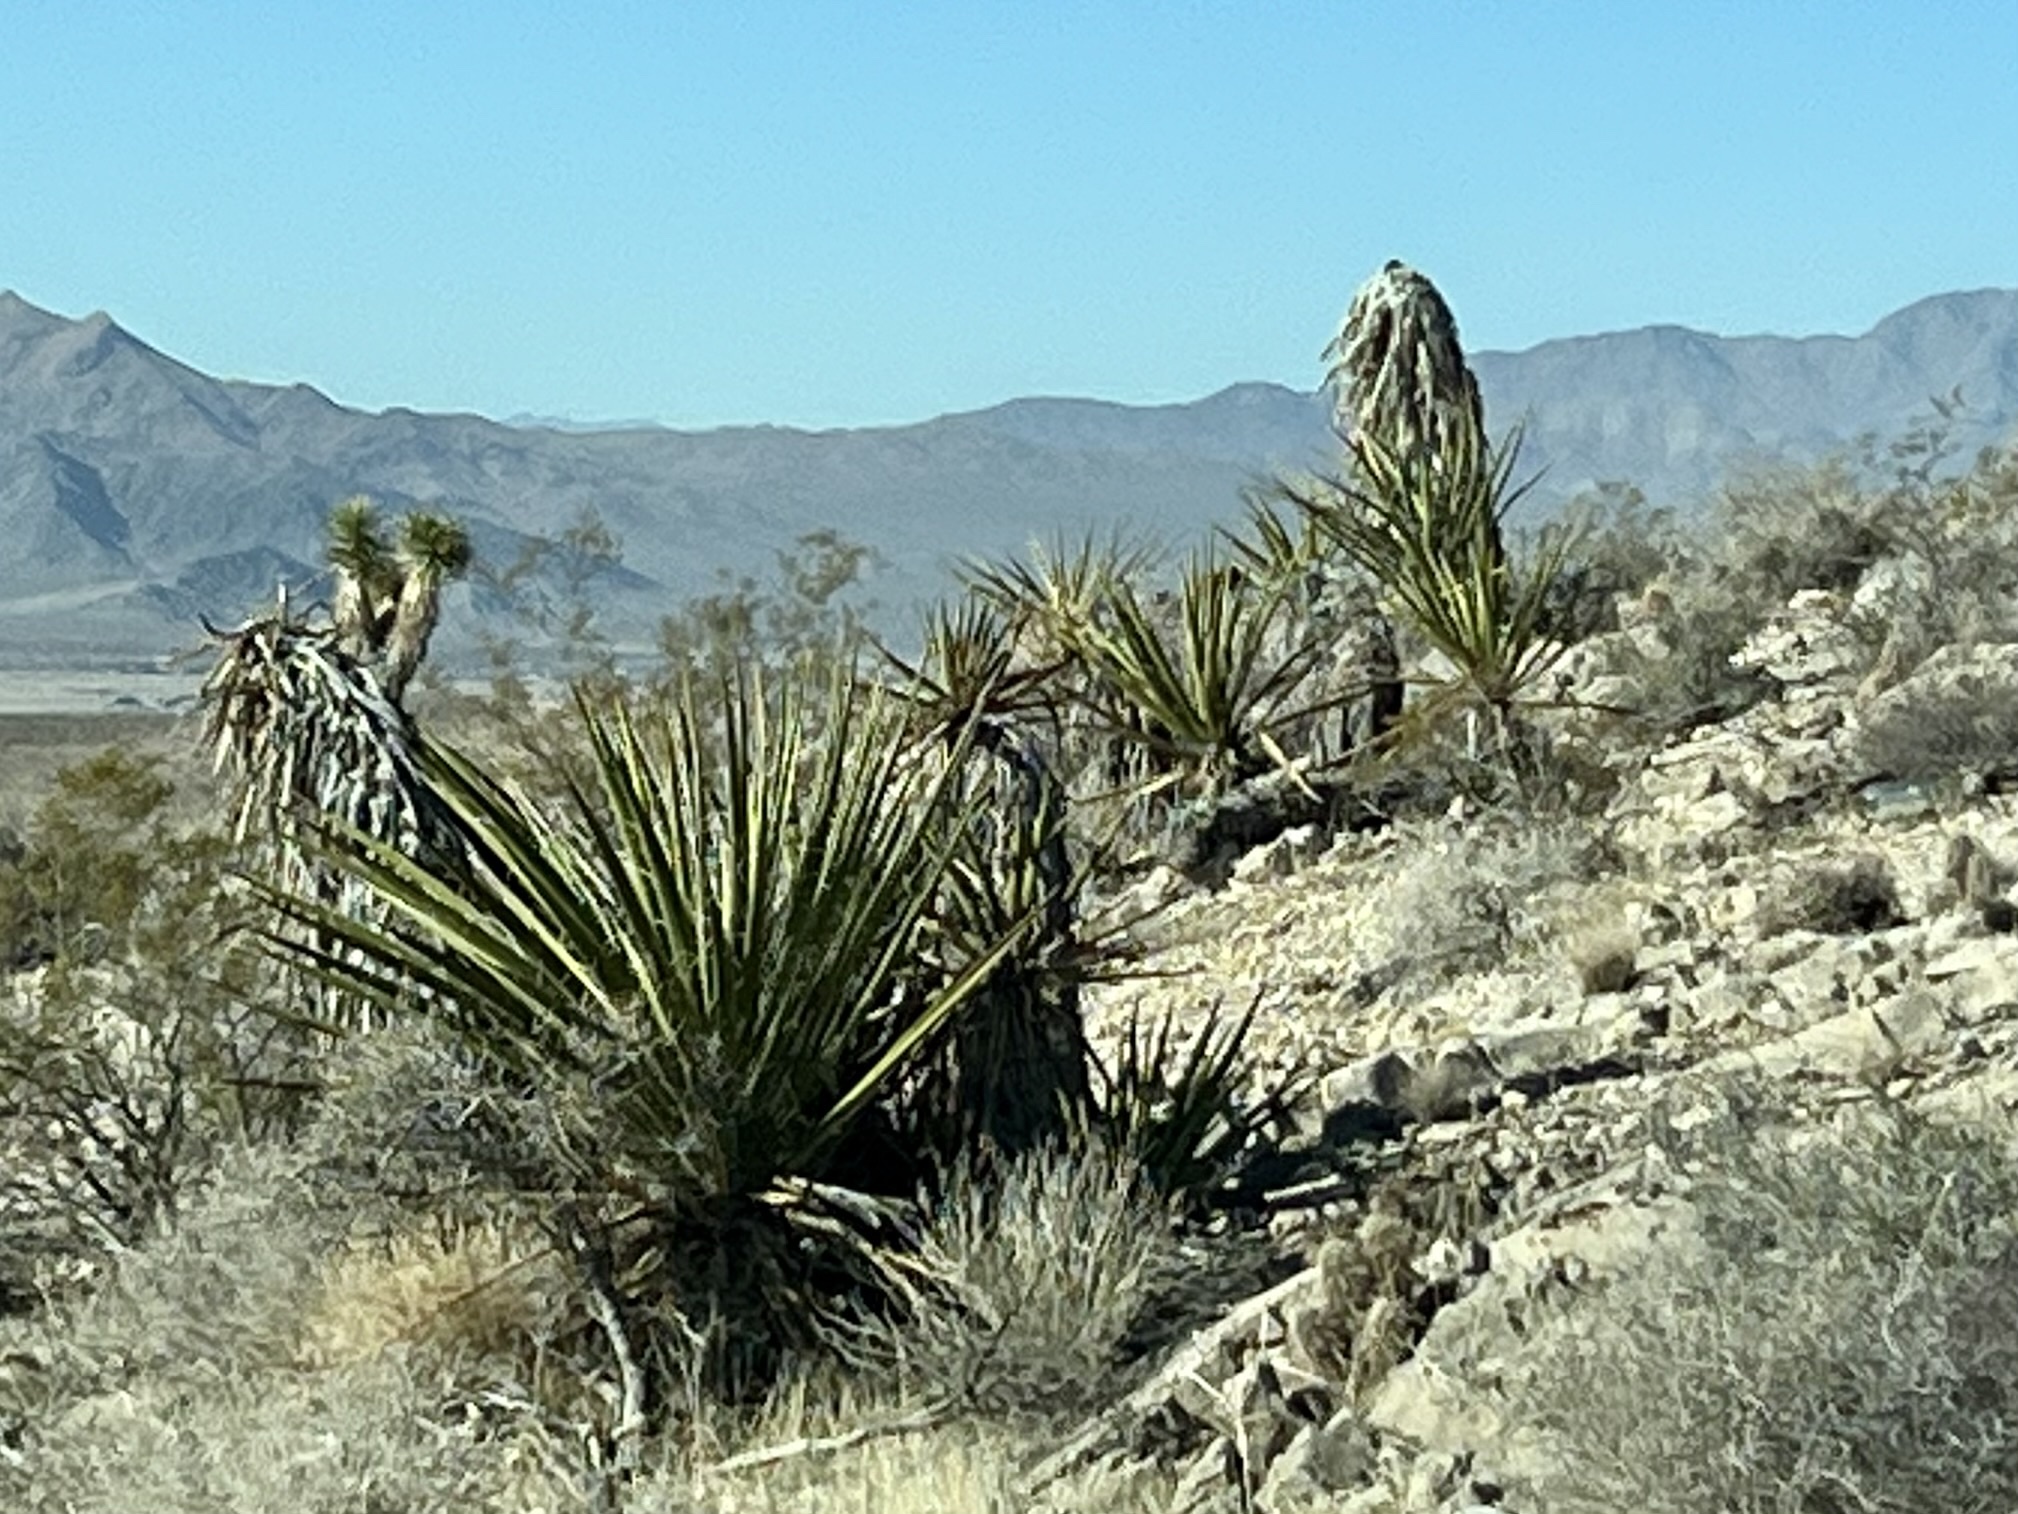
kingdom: Plantae
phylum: Tracheophyta
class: Liliopsida
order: Asparagales
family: Asparagaceae
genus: Yucca
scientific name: Yucca schidigera
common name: Mojave yucca
